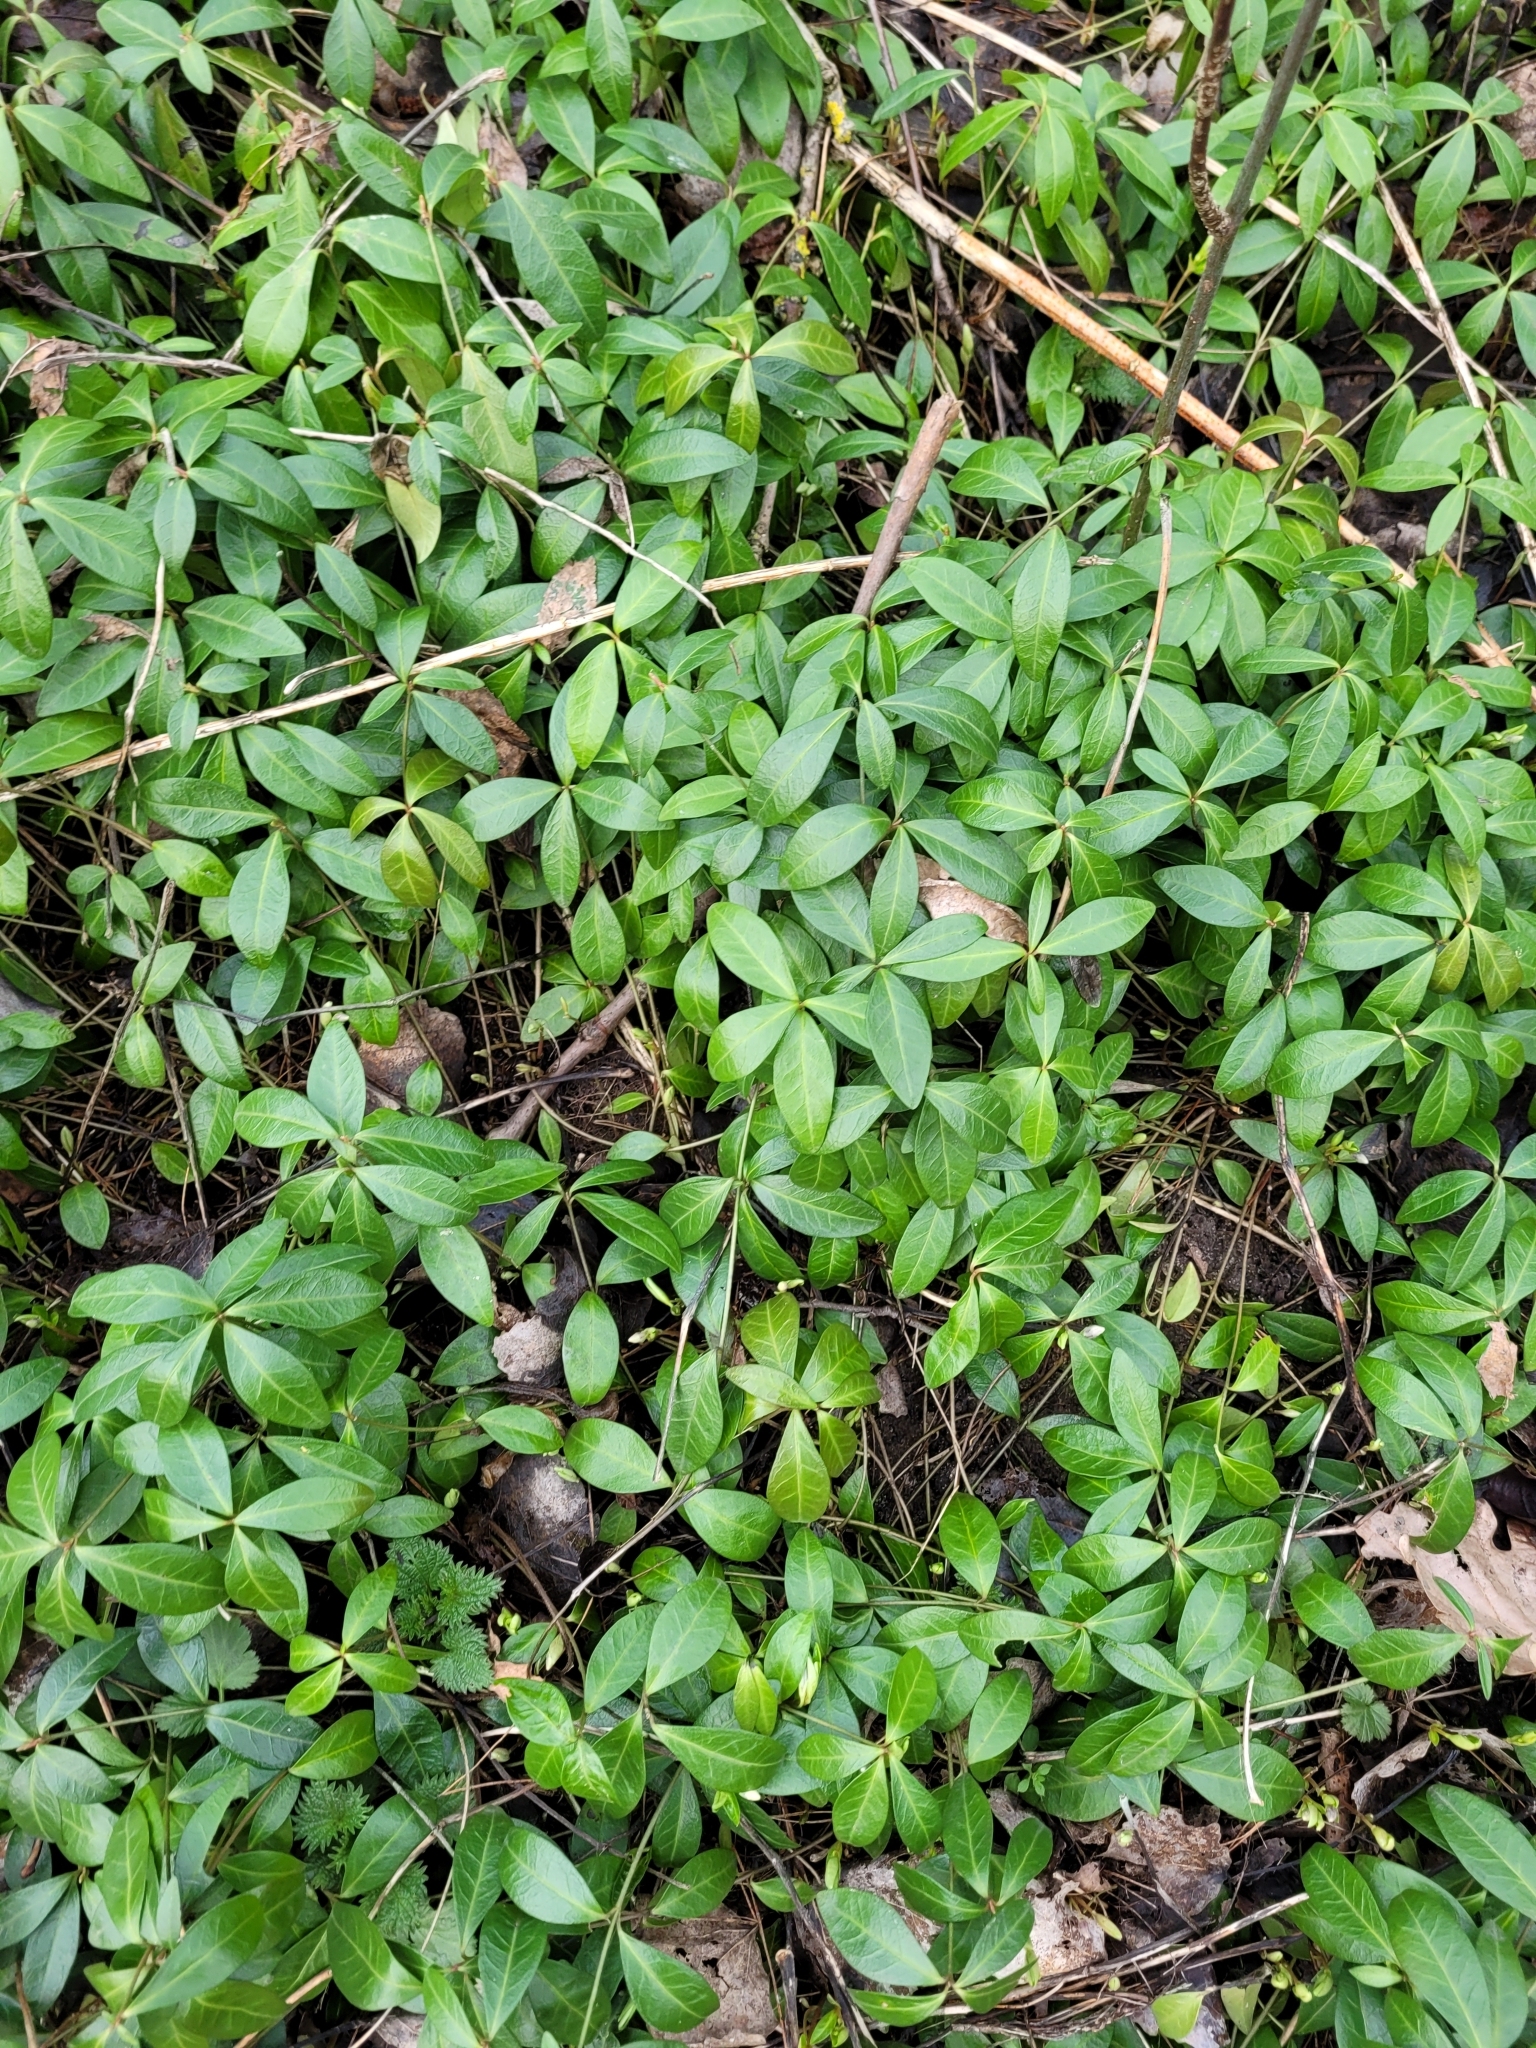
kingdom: Plantae
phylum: Tracheophyta
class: Magnoliopsida
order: Gentianales
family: Apocynaceae
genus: Vinca
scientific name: Vinca minor
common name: Lesser periwinkle
